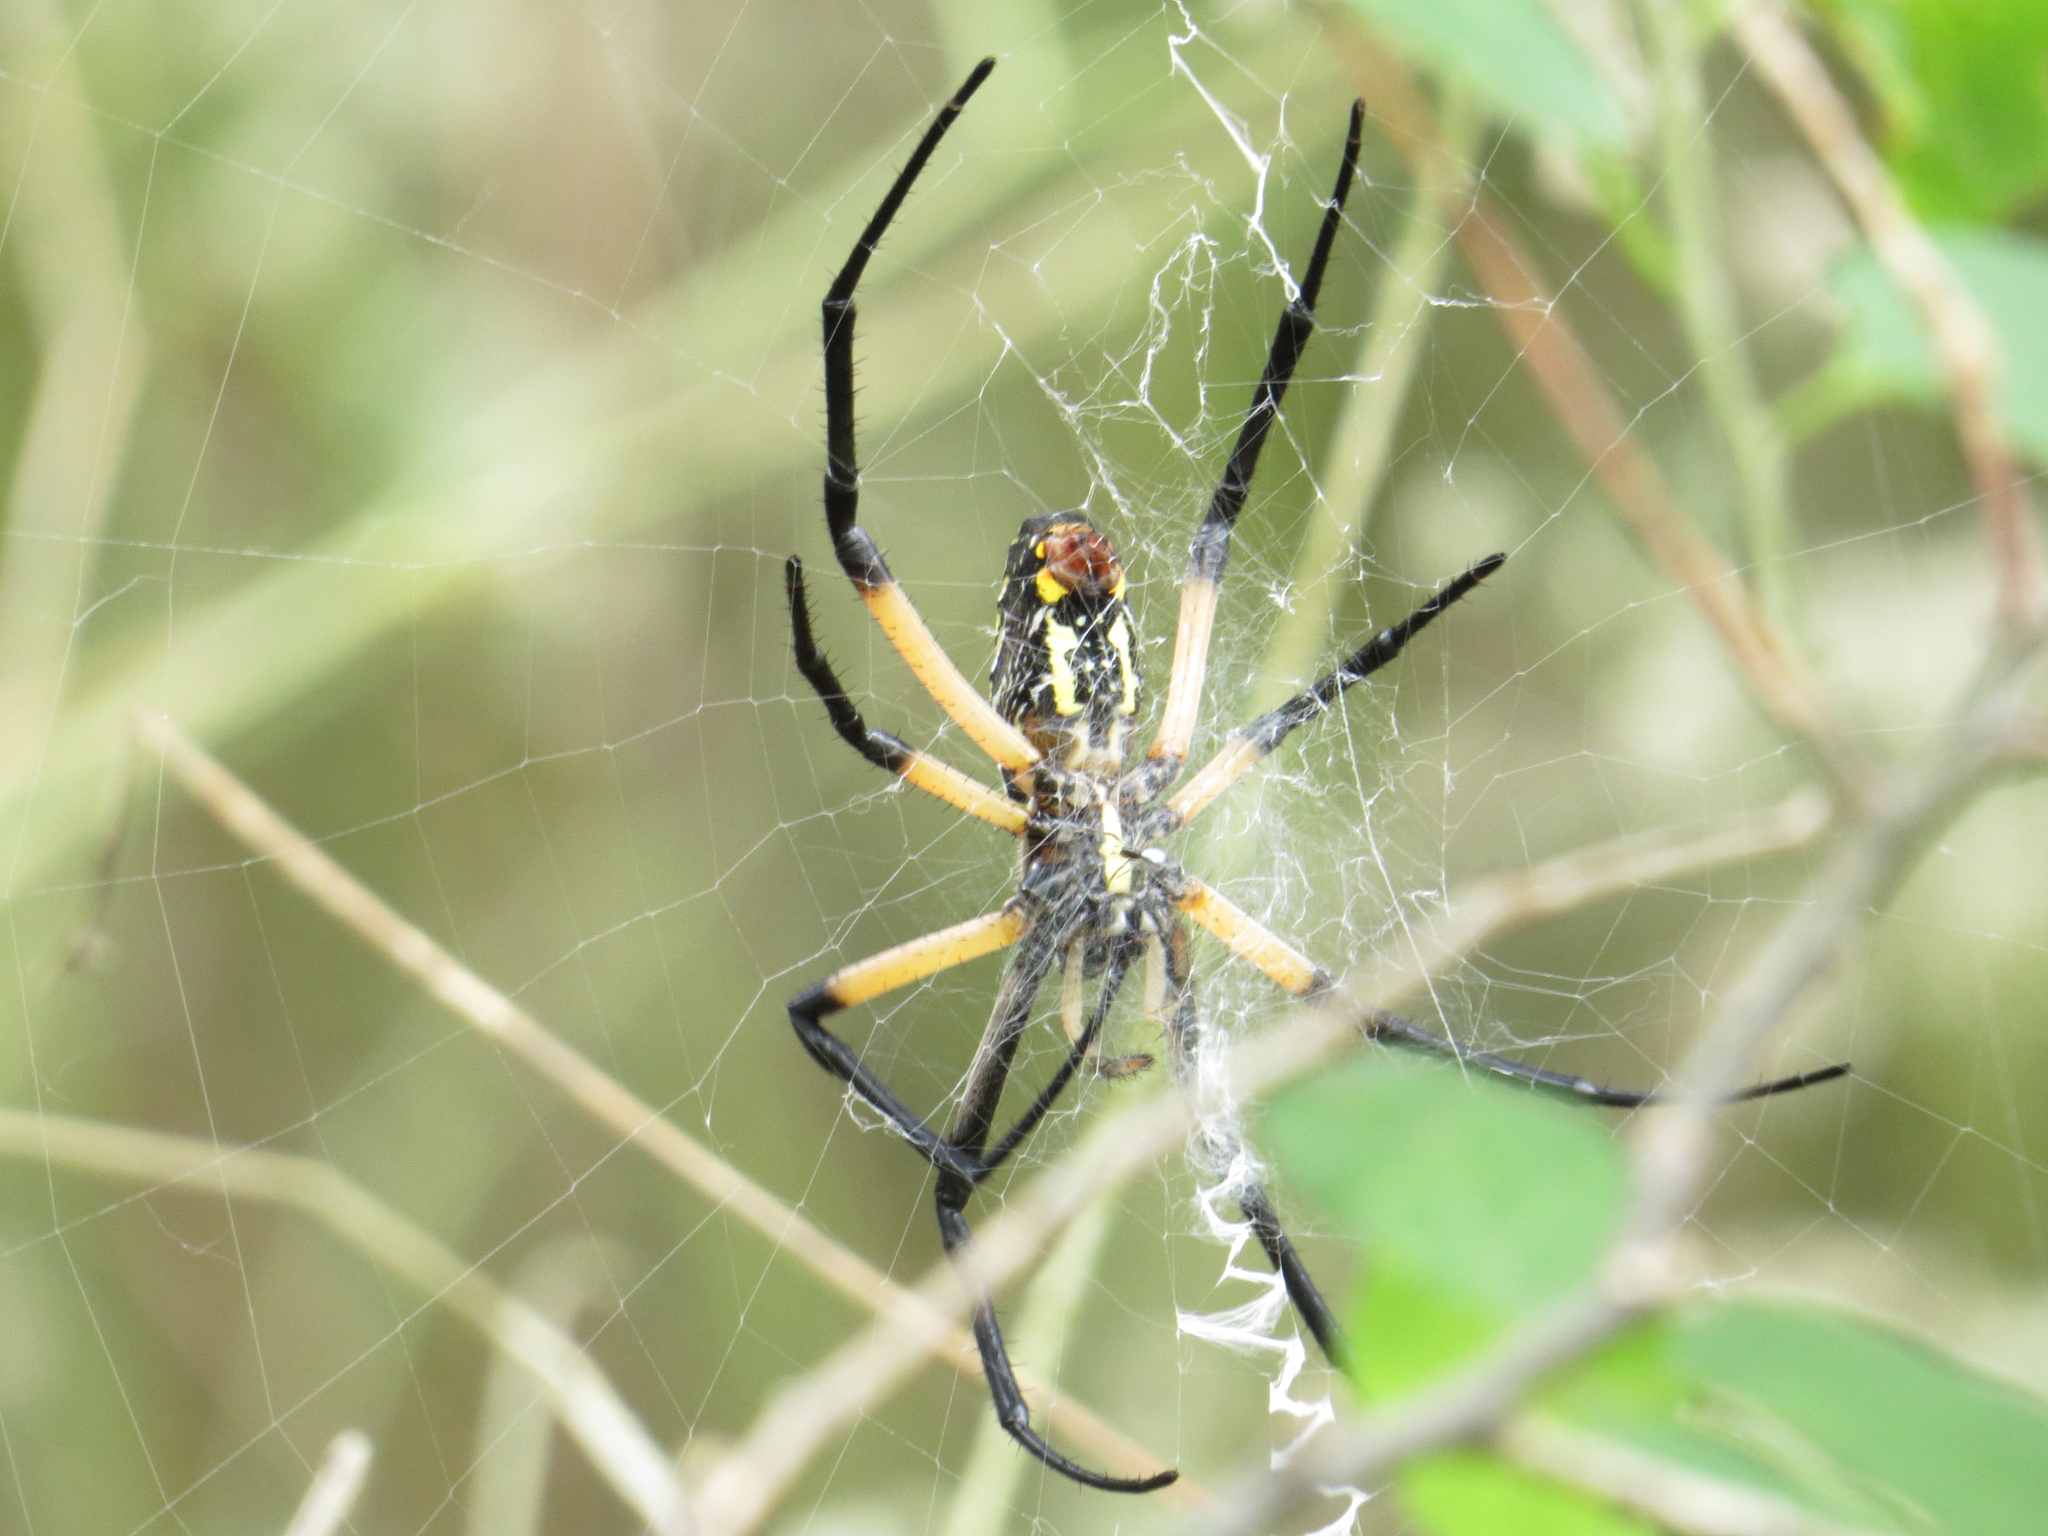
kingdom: Animalia
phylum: Arthropoda
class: Arachnida
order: Araneae
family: Araneidae
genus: Argiope
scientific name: Argiope aurantia
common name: Orb weavers
